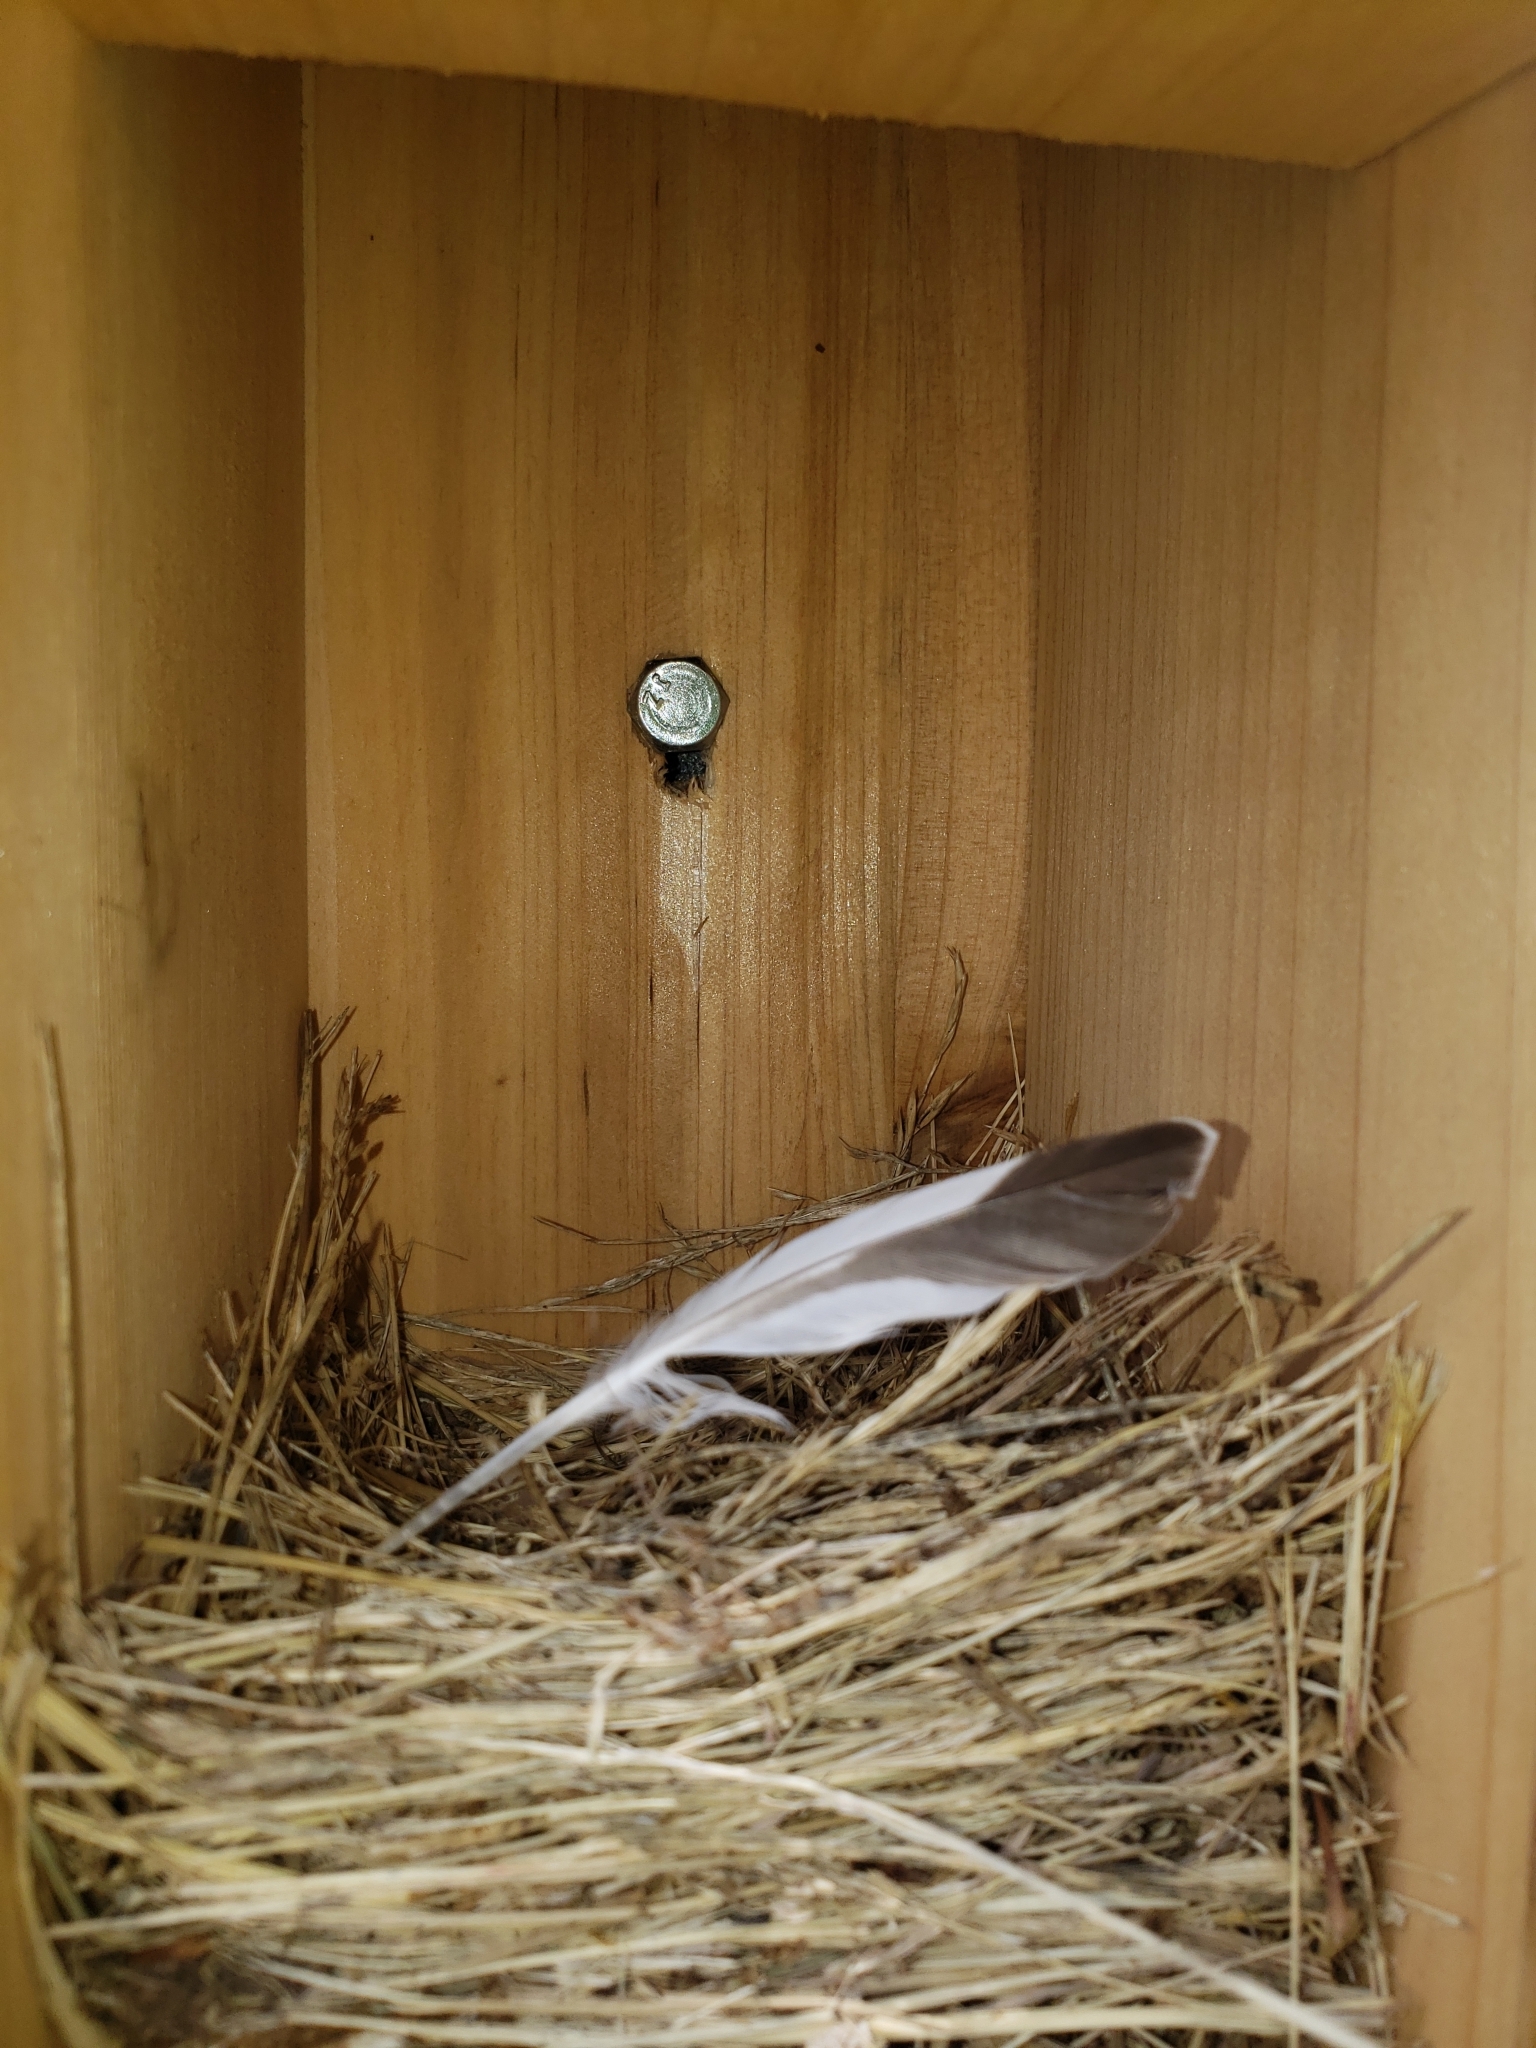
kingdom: Animalia
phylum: Chordata
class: Aves
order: Charadriiformes
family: Charadriidae
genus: Charadrius
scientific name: Charadrius vociferus
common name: Killdeer
